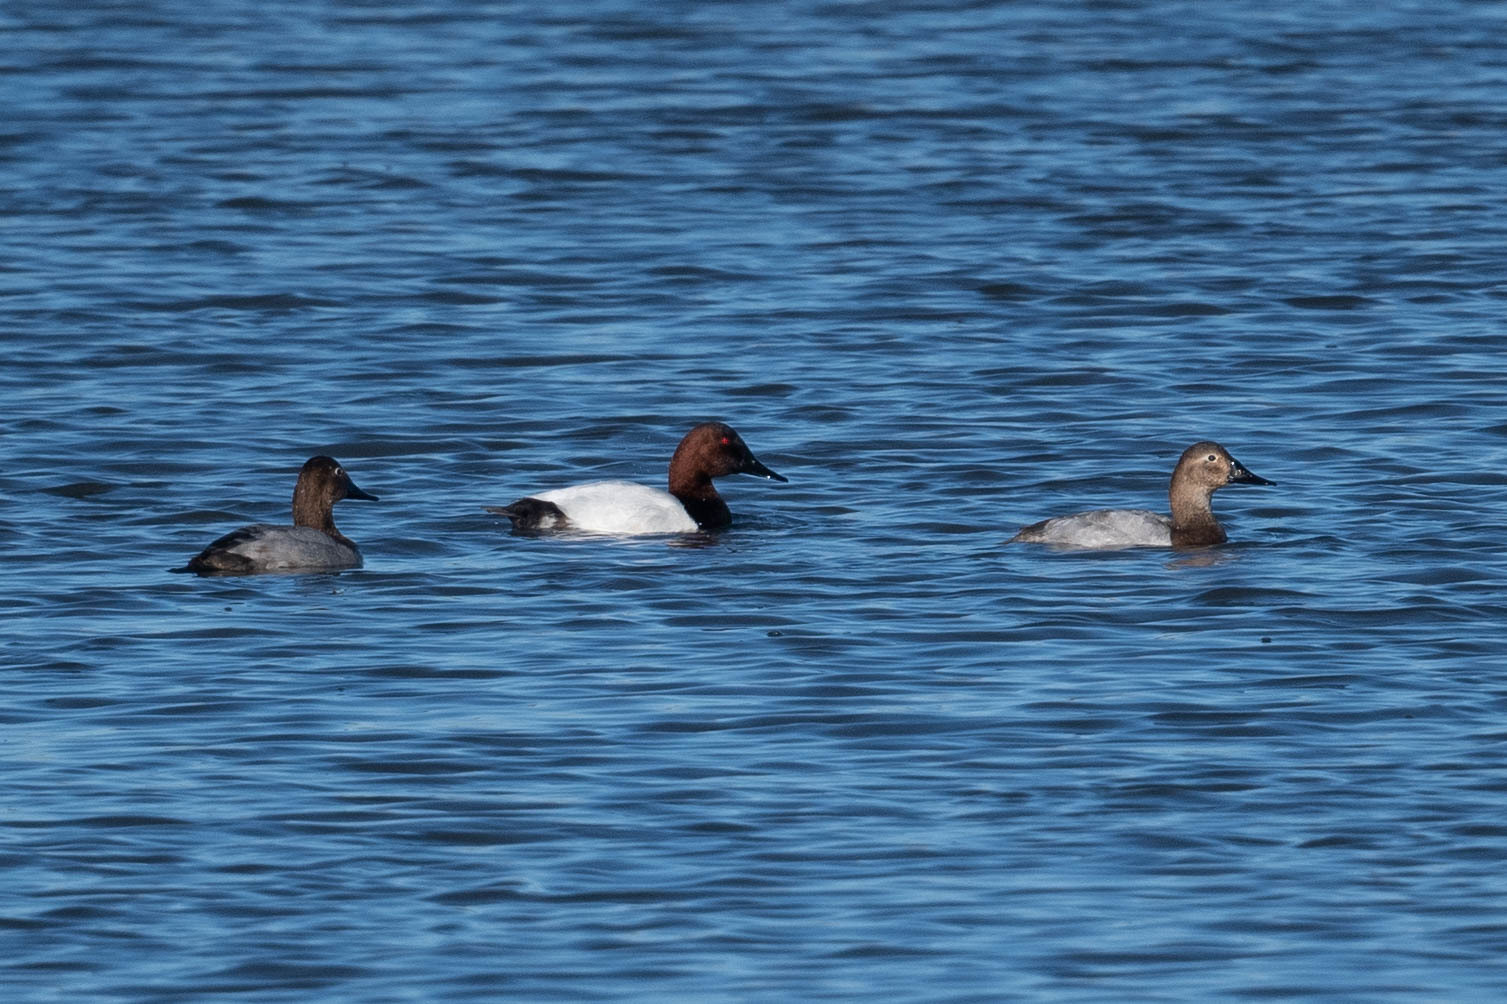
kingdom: Animalia
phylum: Chordata
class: Aves
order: Anseriformes
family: Anatidae
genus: Aythya
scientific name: Aythya valisineria
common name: Canvasback
